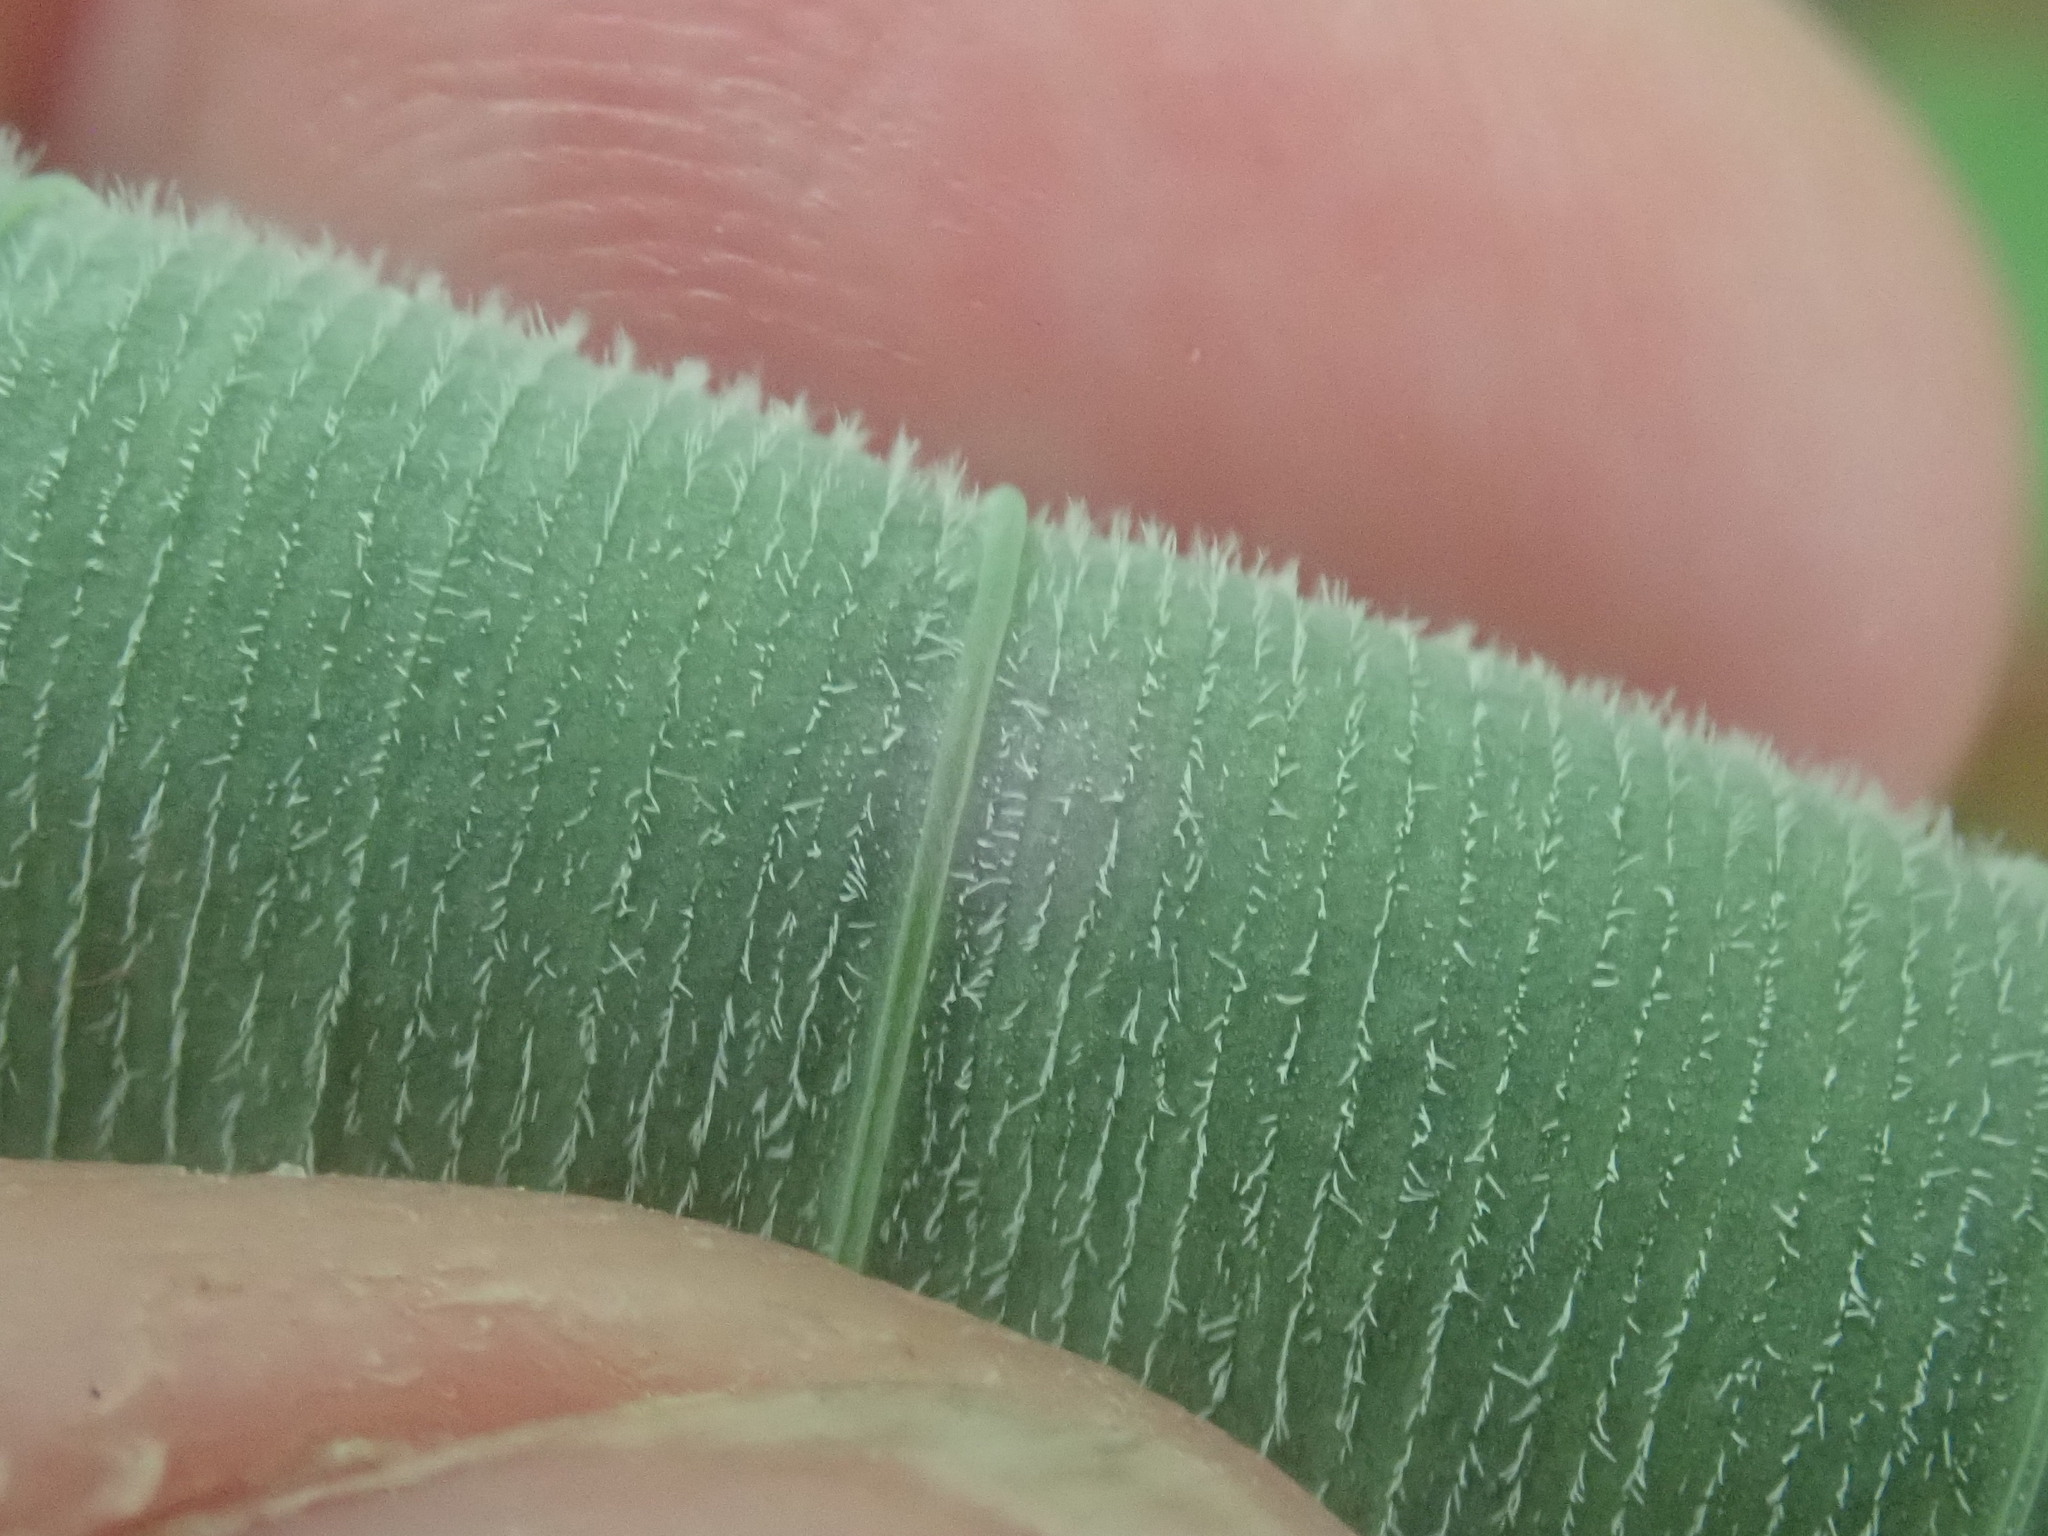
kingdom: Plantae
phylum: Tracheophyta
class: Liliopsida
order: Asparagales
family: Asparagaceae
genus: Polygonatum
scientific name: Polygonatum pubescens
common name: Downy solomon's seal
